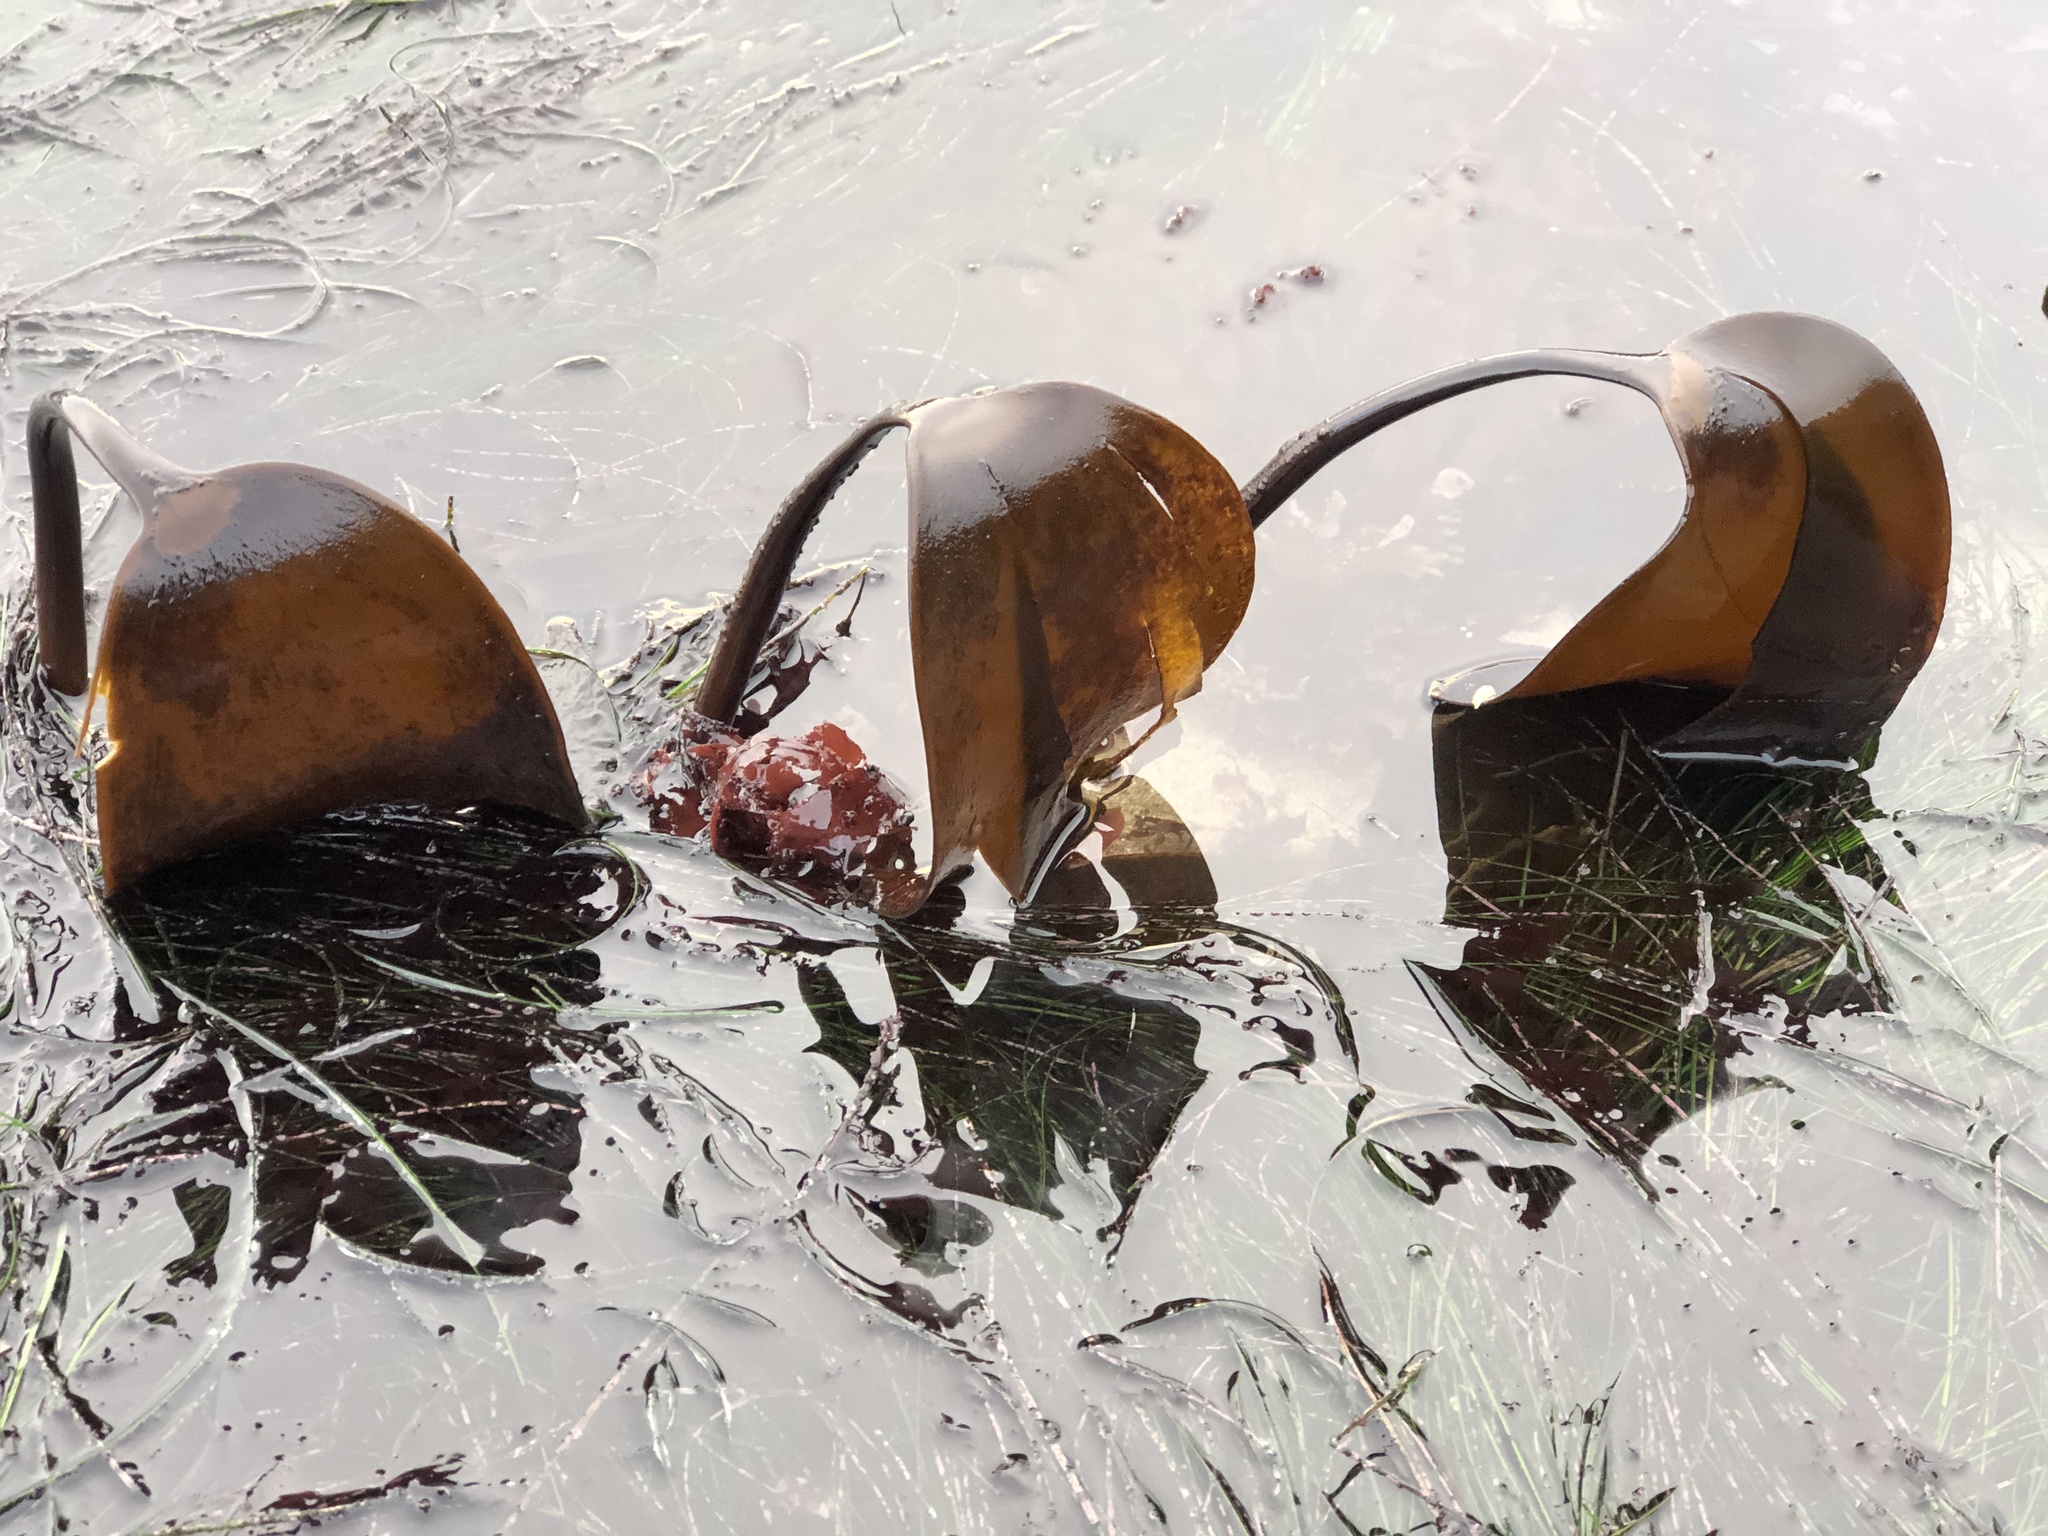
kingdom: Chromista
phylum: Ochrophyta
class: Phaeophyceae
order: Laminariales
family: Laminariaceae
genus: Laminaria
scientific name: Laminaria setchellii
